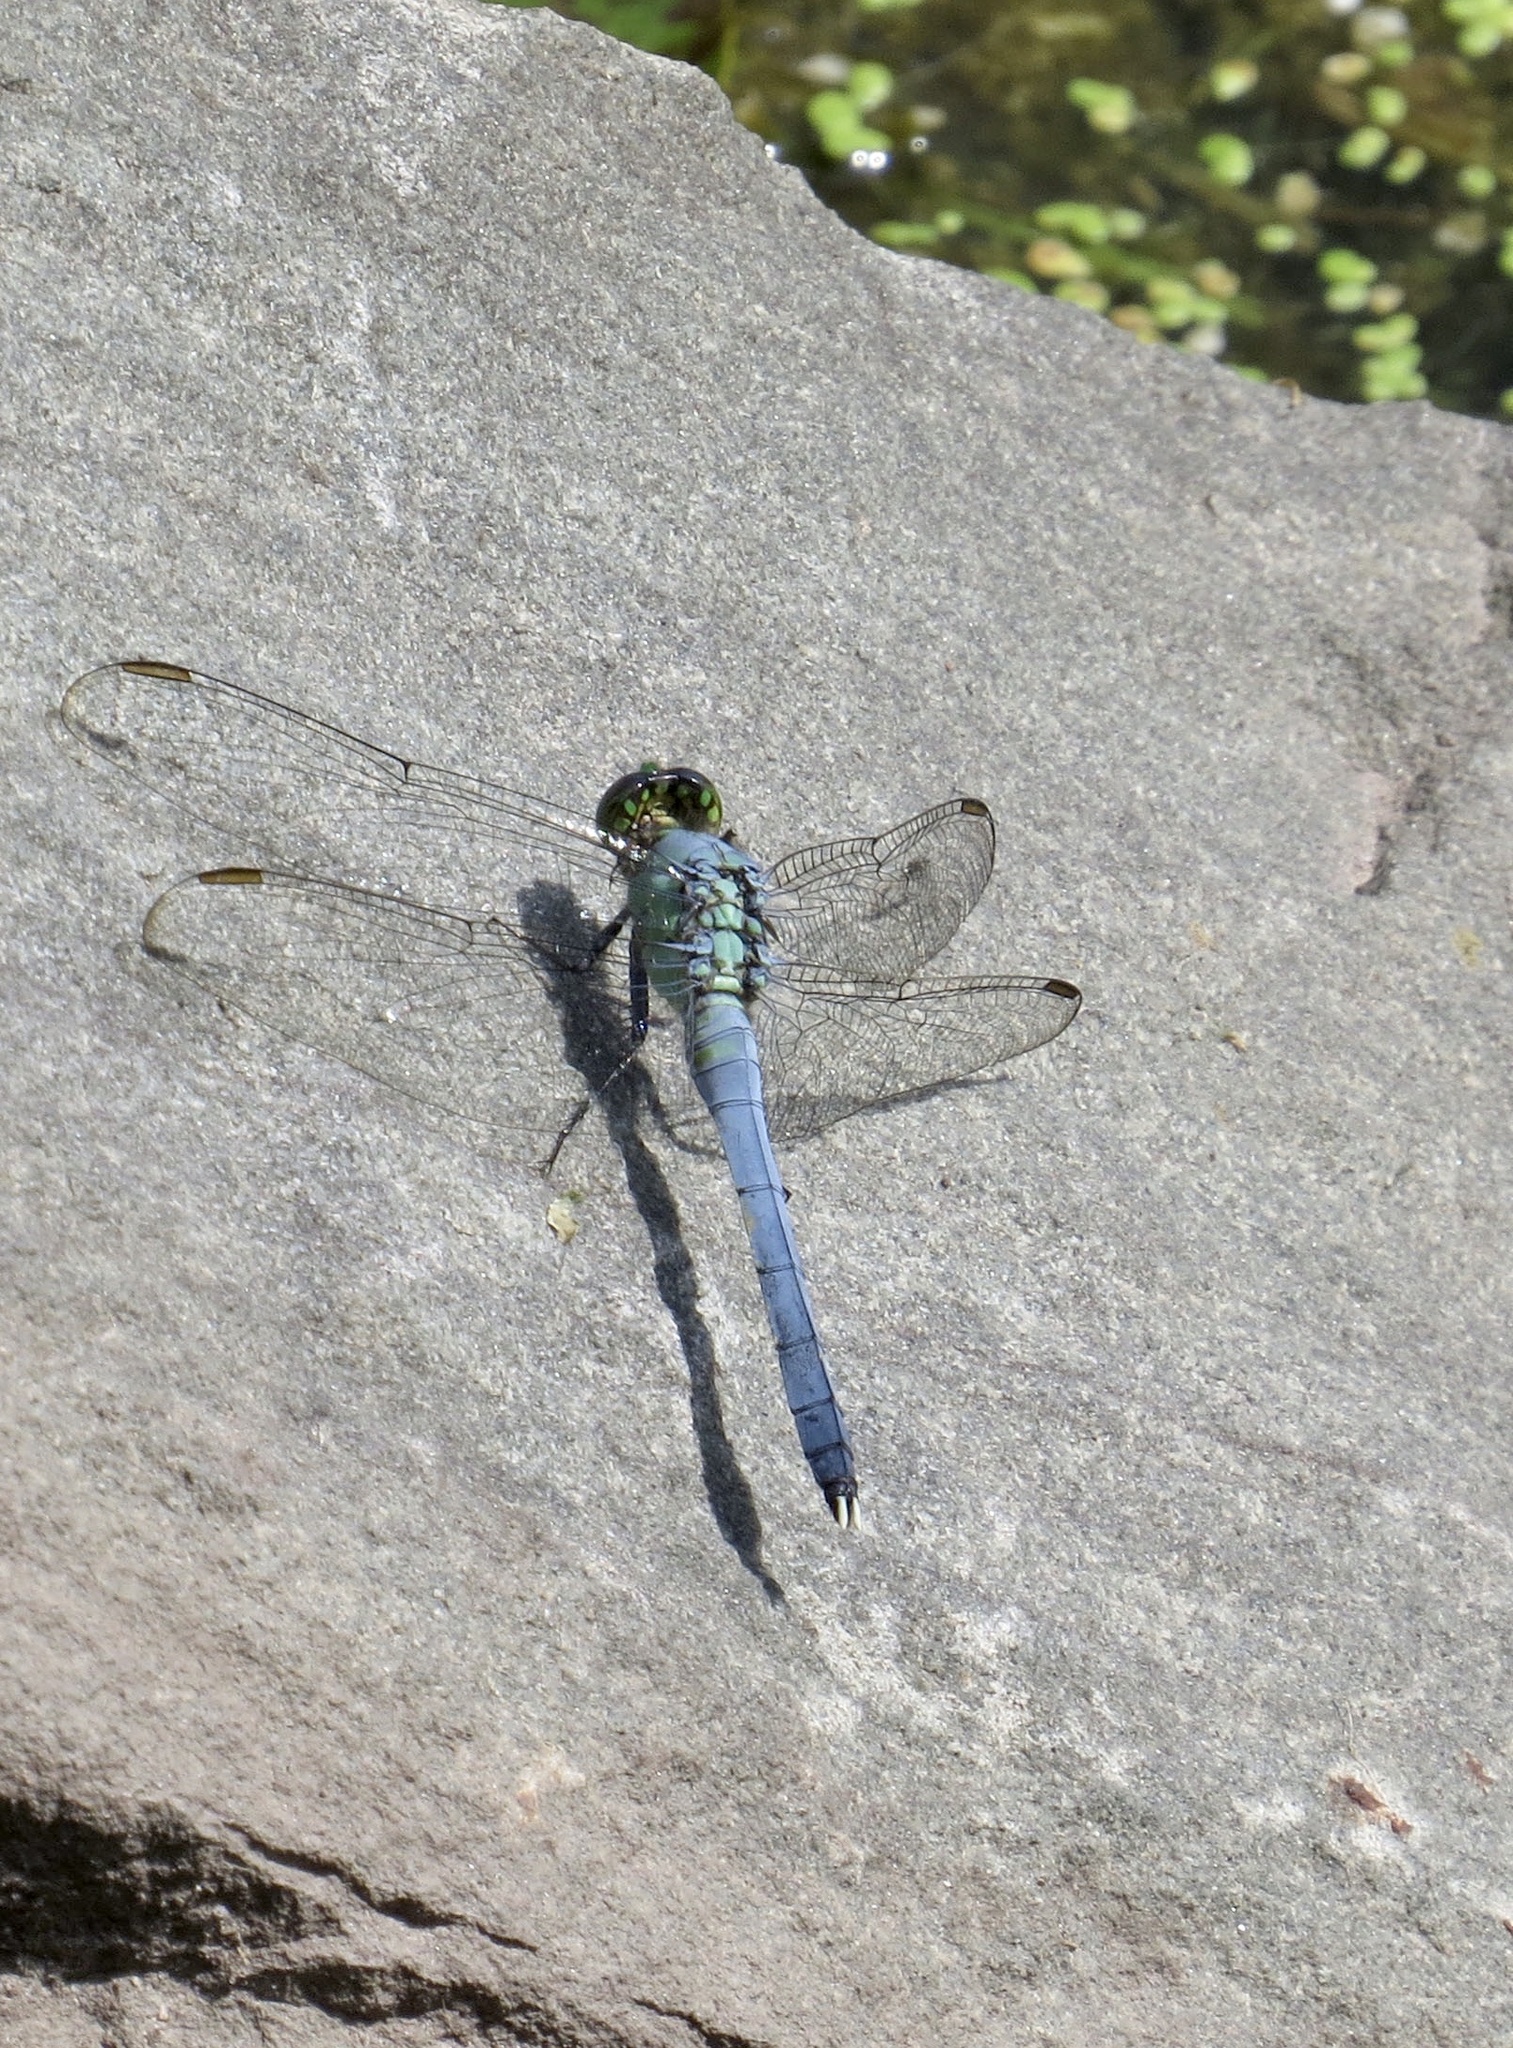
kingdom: Animalia
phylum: Arthropoda
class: Insecta
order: Odonata
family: Libellulidae
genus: Erythemis
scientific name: Erythemis simplicicollis
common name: Eastern pondhawk
